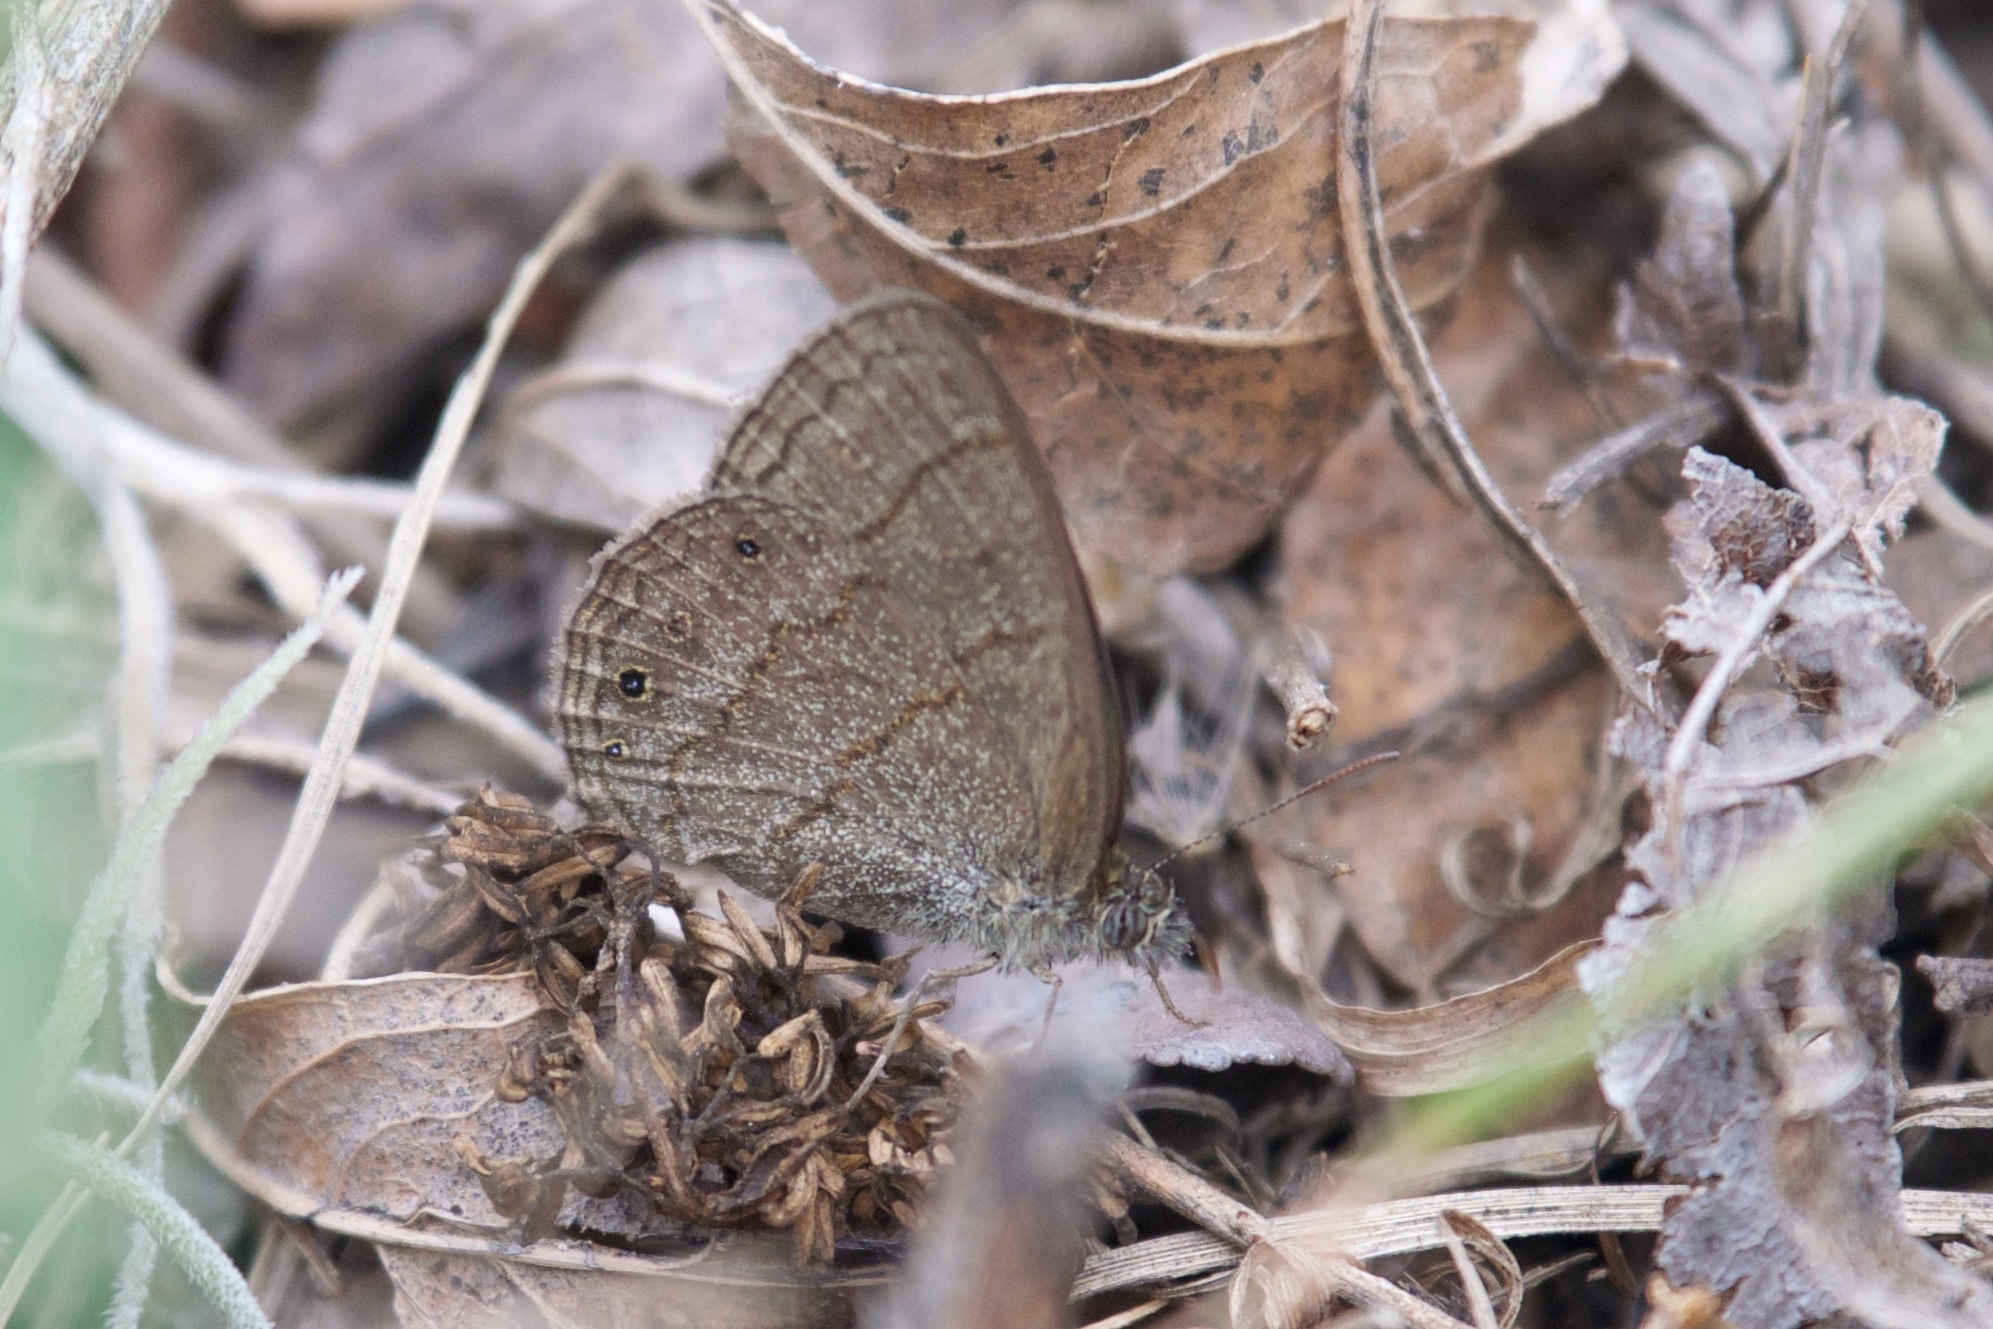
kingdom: Animalia
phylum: Arthropoda
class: Insecta
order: Lepidoptera
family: Nymphalidae
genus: Hermeuptychia
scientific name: Hermeuptychia hermybius
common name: South texas satyr
